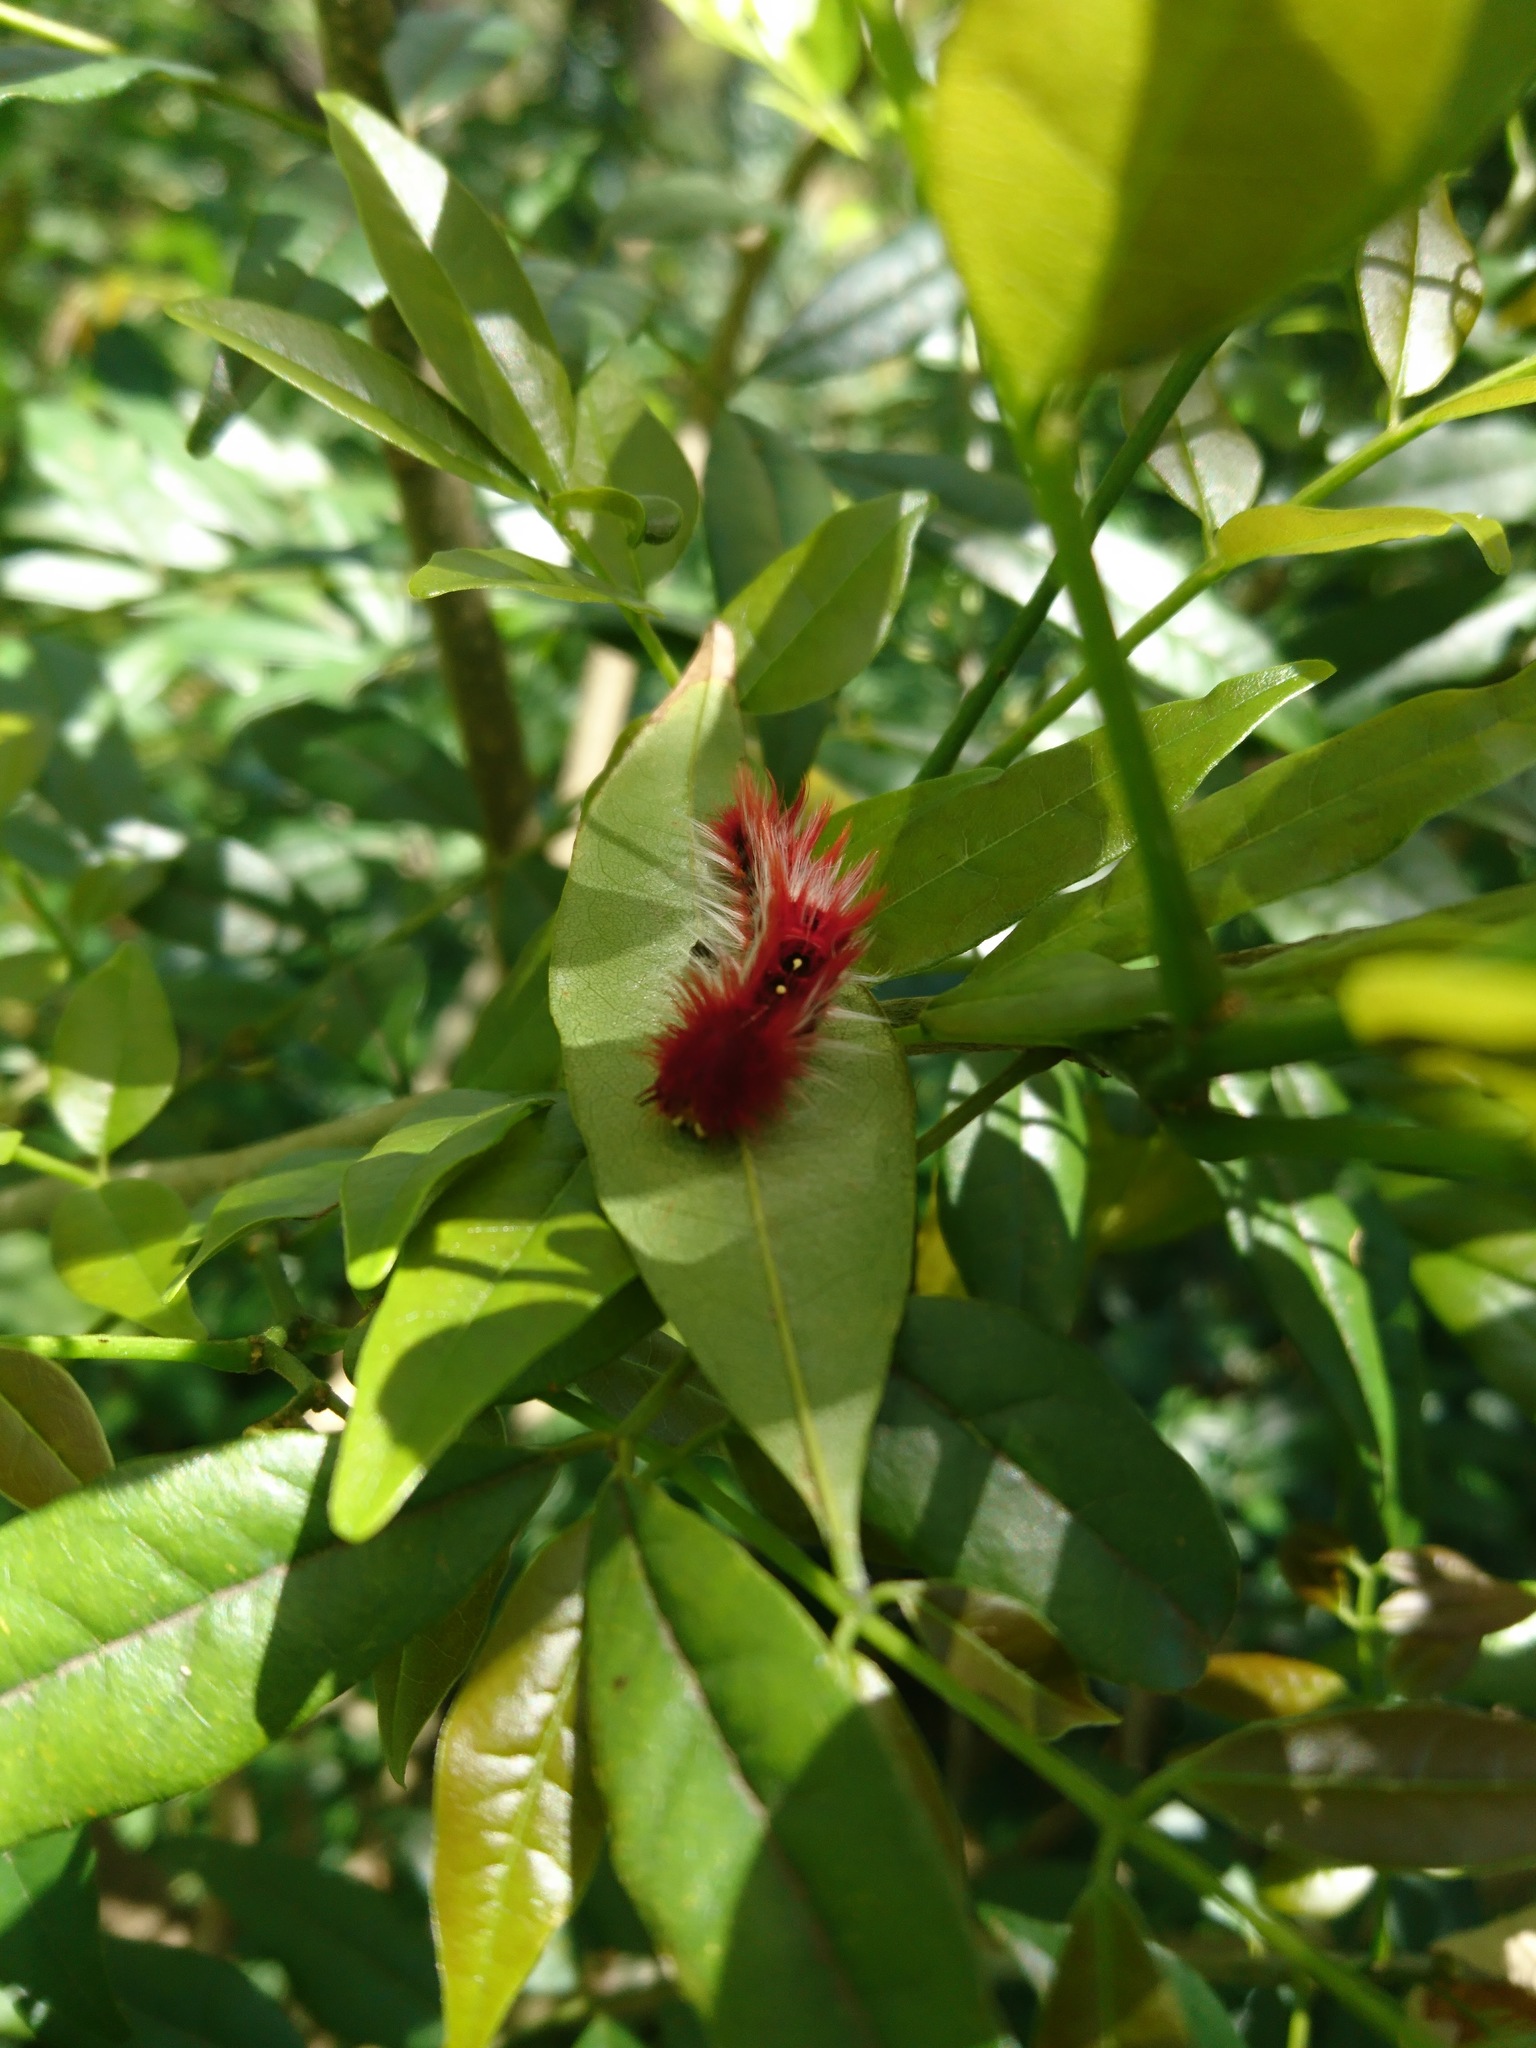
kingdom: Animalia
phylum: Arthropoda
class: Insecta
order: Lepidoptera
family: Nymphalidae
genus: Morpho
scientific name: Morpho epistrophus
